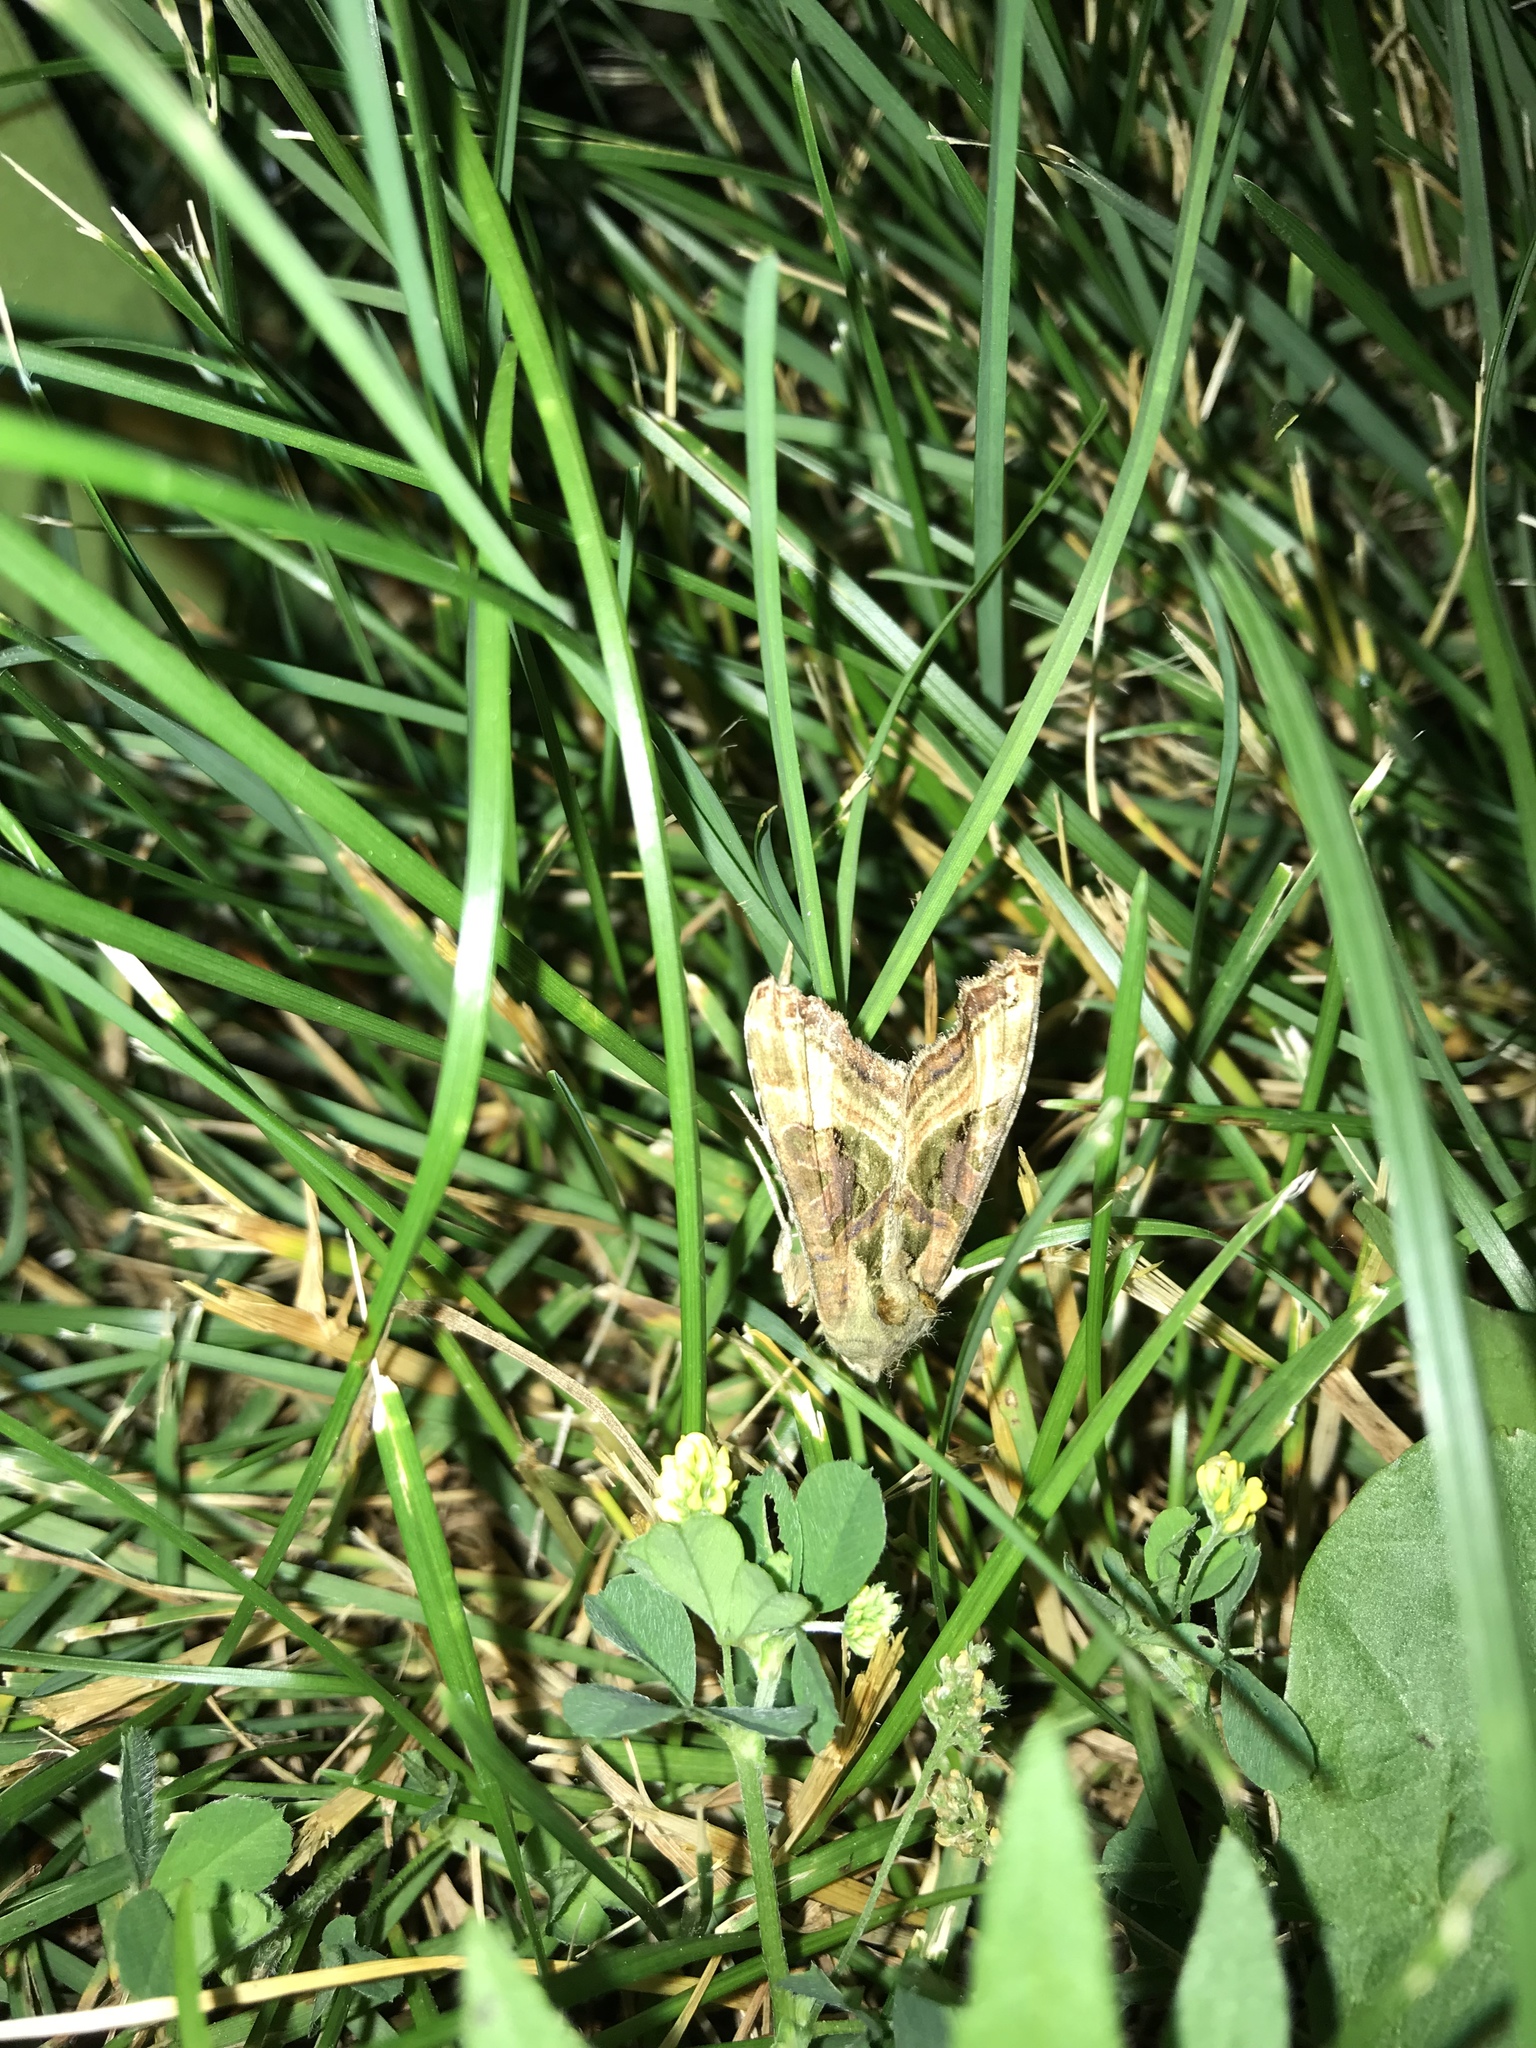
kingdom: Animalia
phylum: Arthropoda
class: Insecta
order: Lepidoptera
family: Noctuidae
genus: Phlogophora
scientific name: Phlogophora iris
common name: Olive angle shades
